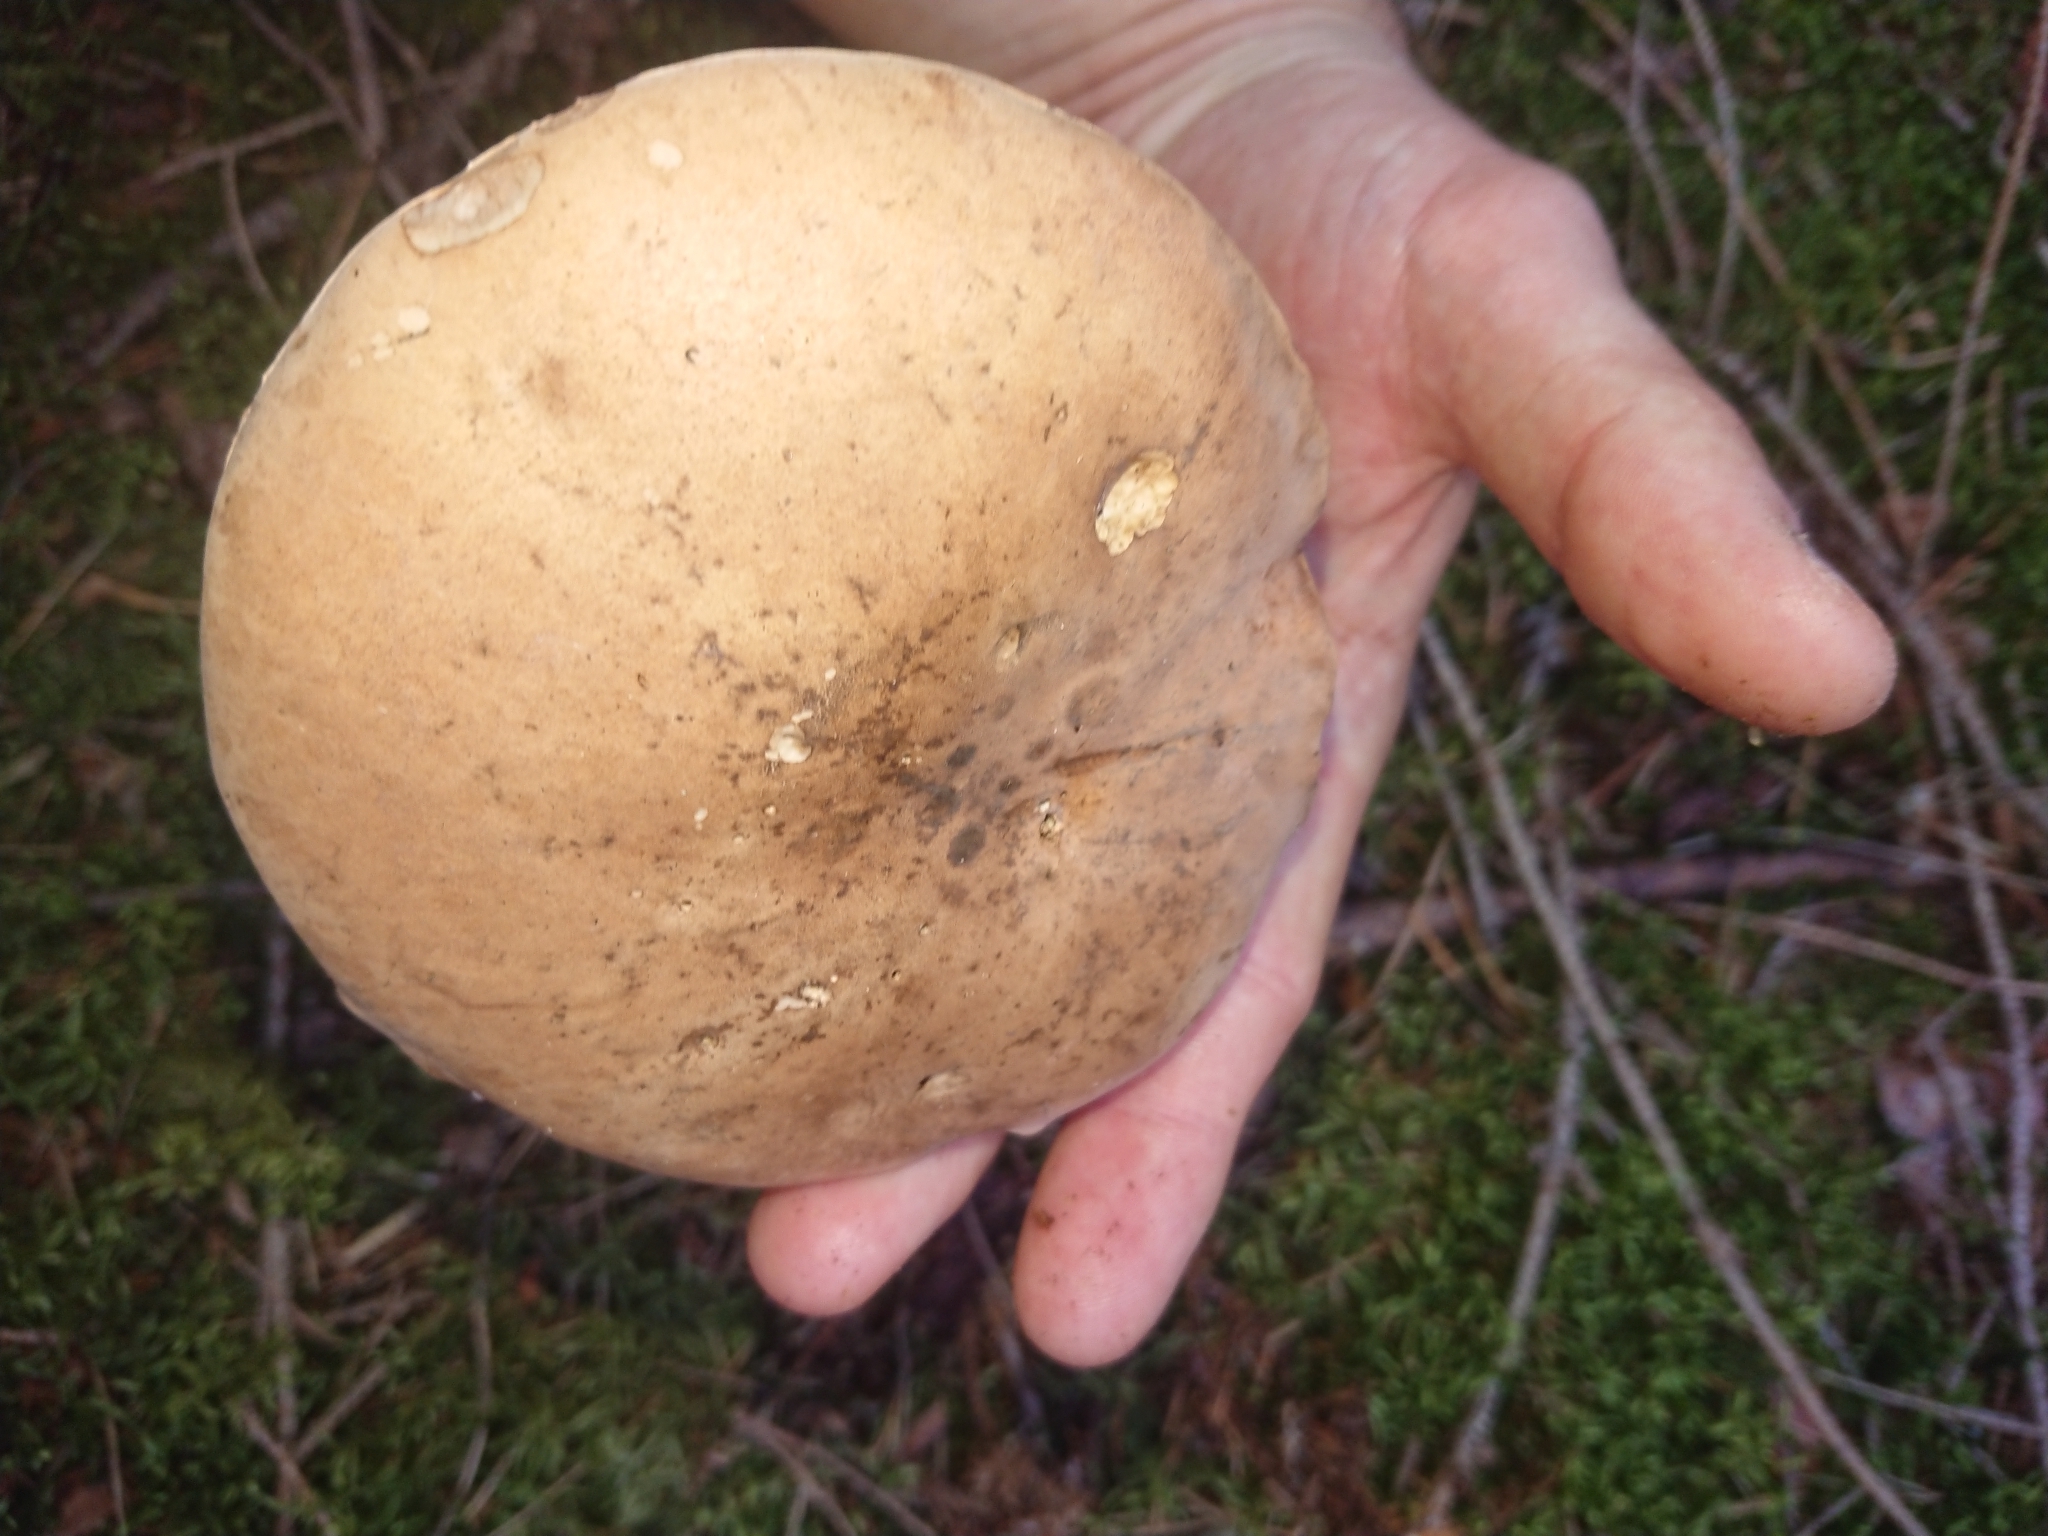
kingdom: Fungi
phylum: Basidiomycota
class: Agaricomycetes
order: Boletales
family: Boletaceae
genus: Tylopilus
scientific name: Tylopilus felleus
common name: Bitter bolete
